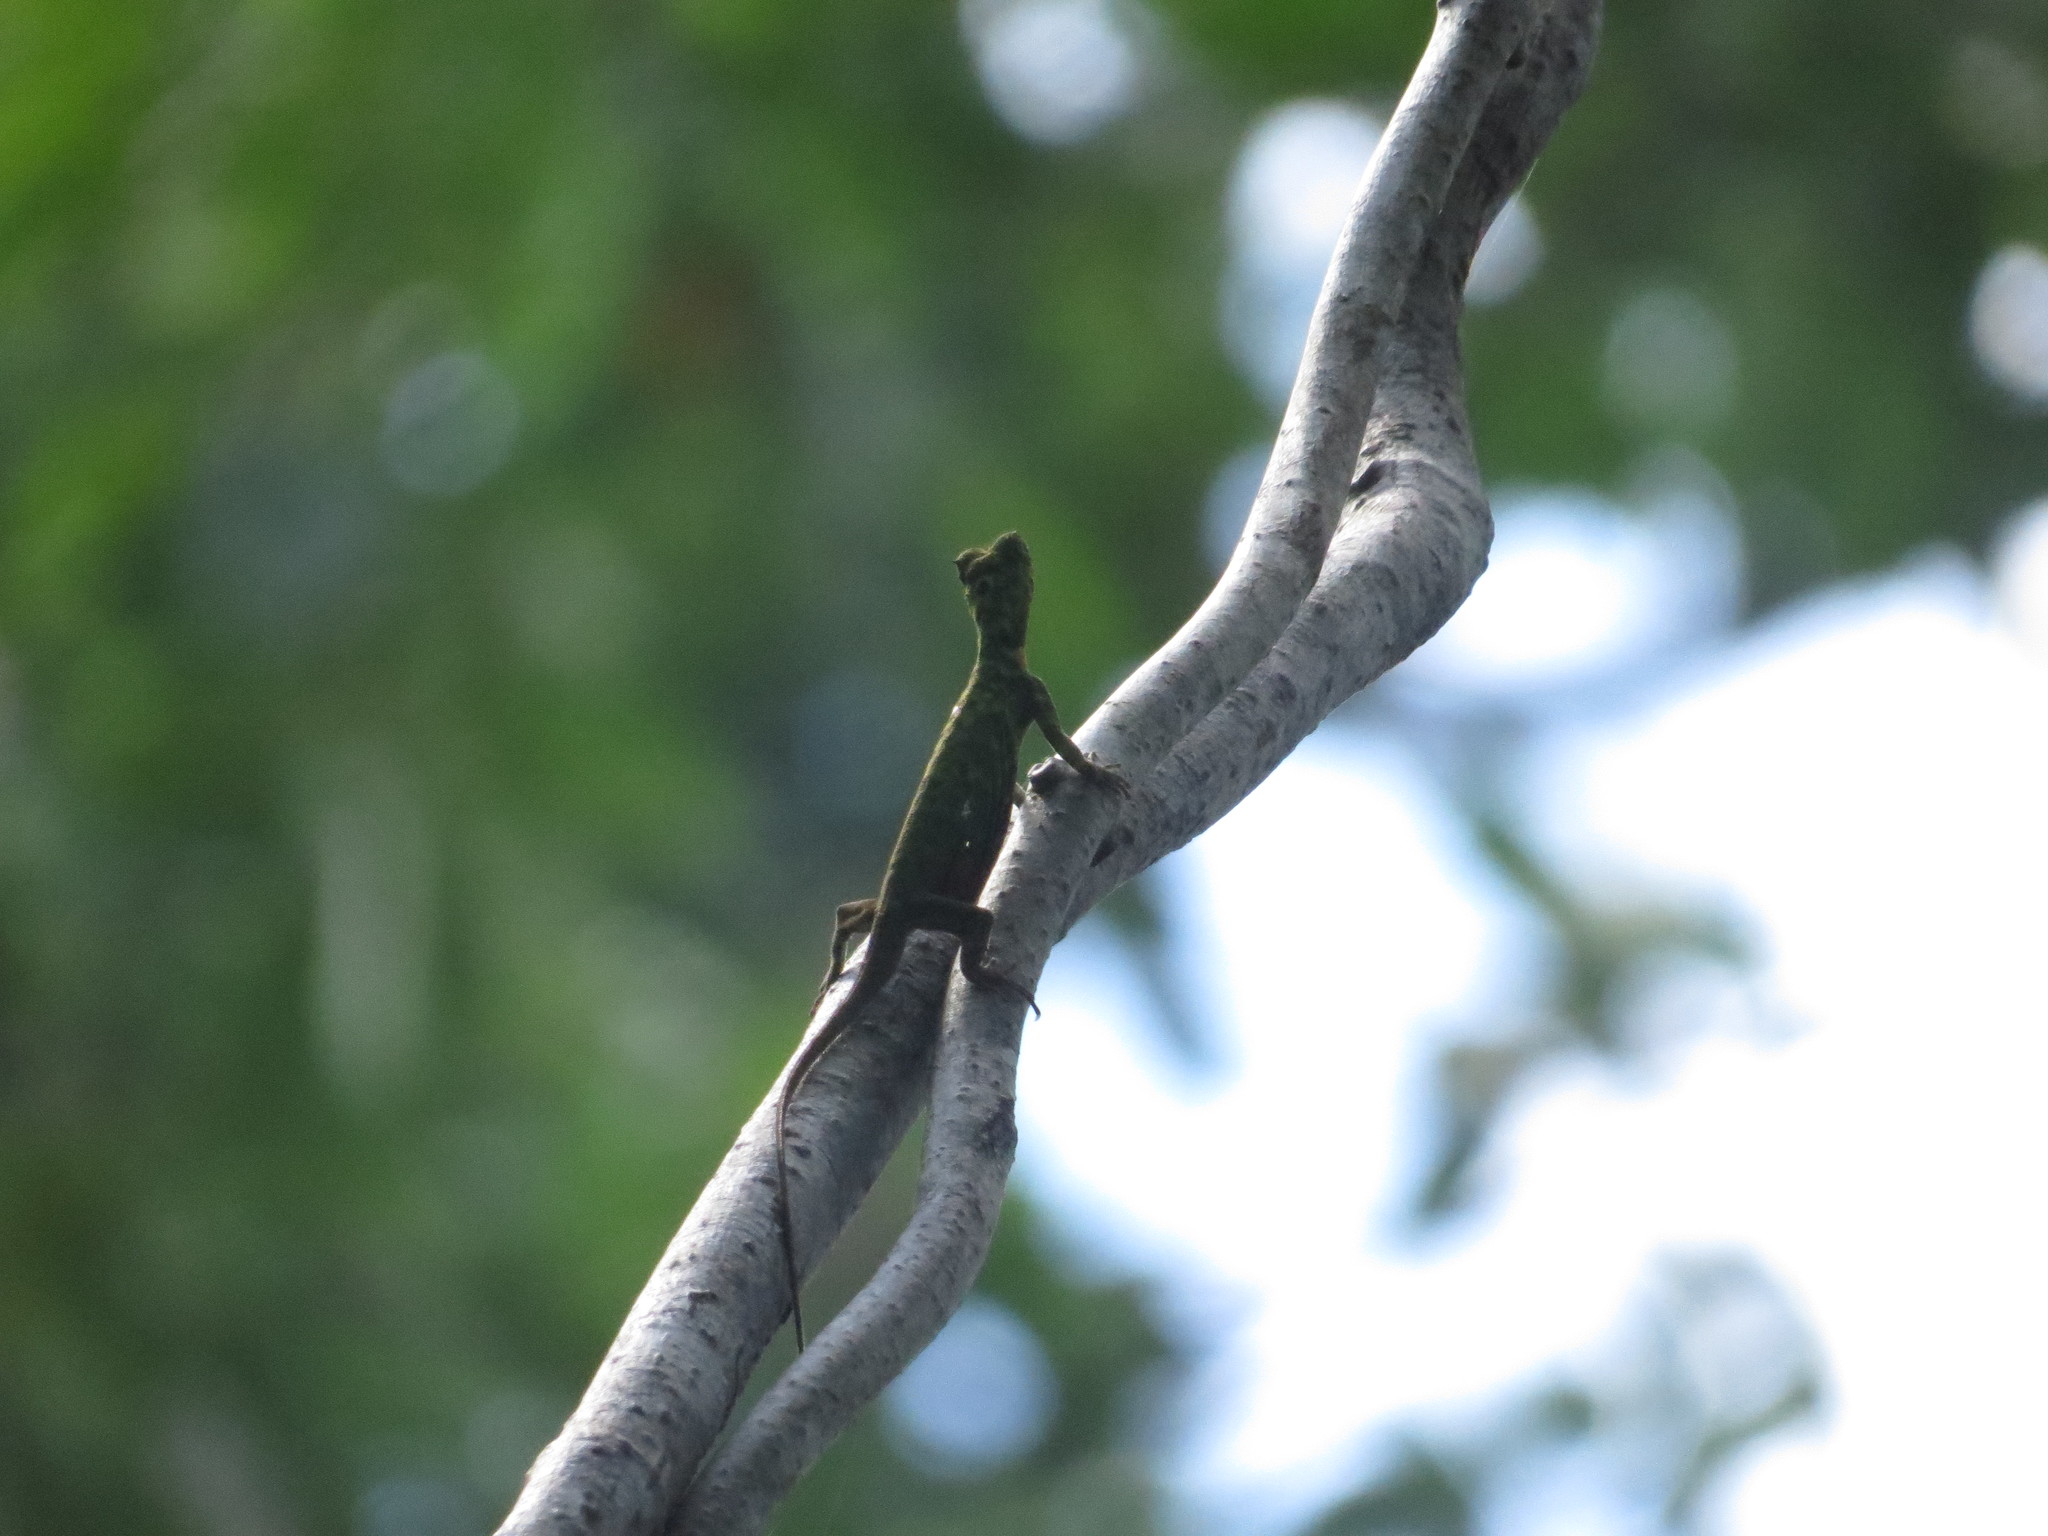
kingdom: Animalia
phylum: Chordata
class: Squamata
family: Agamidae
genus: Draco
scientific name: Draco cornutus
